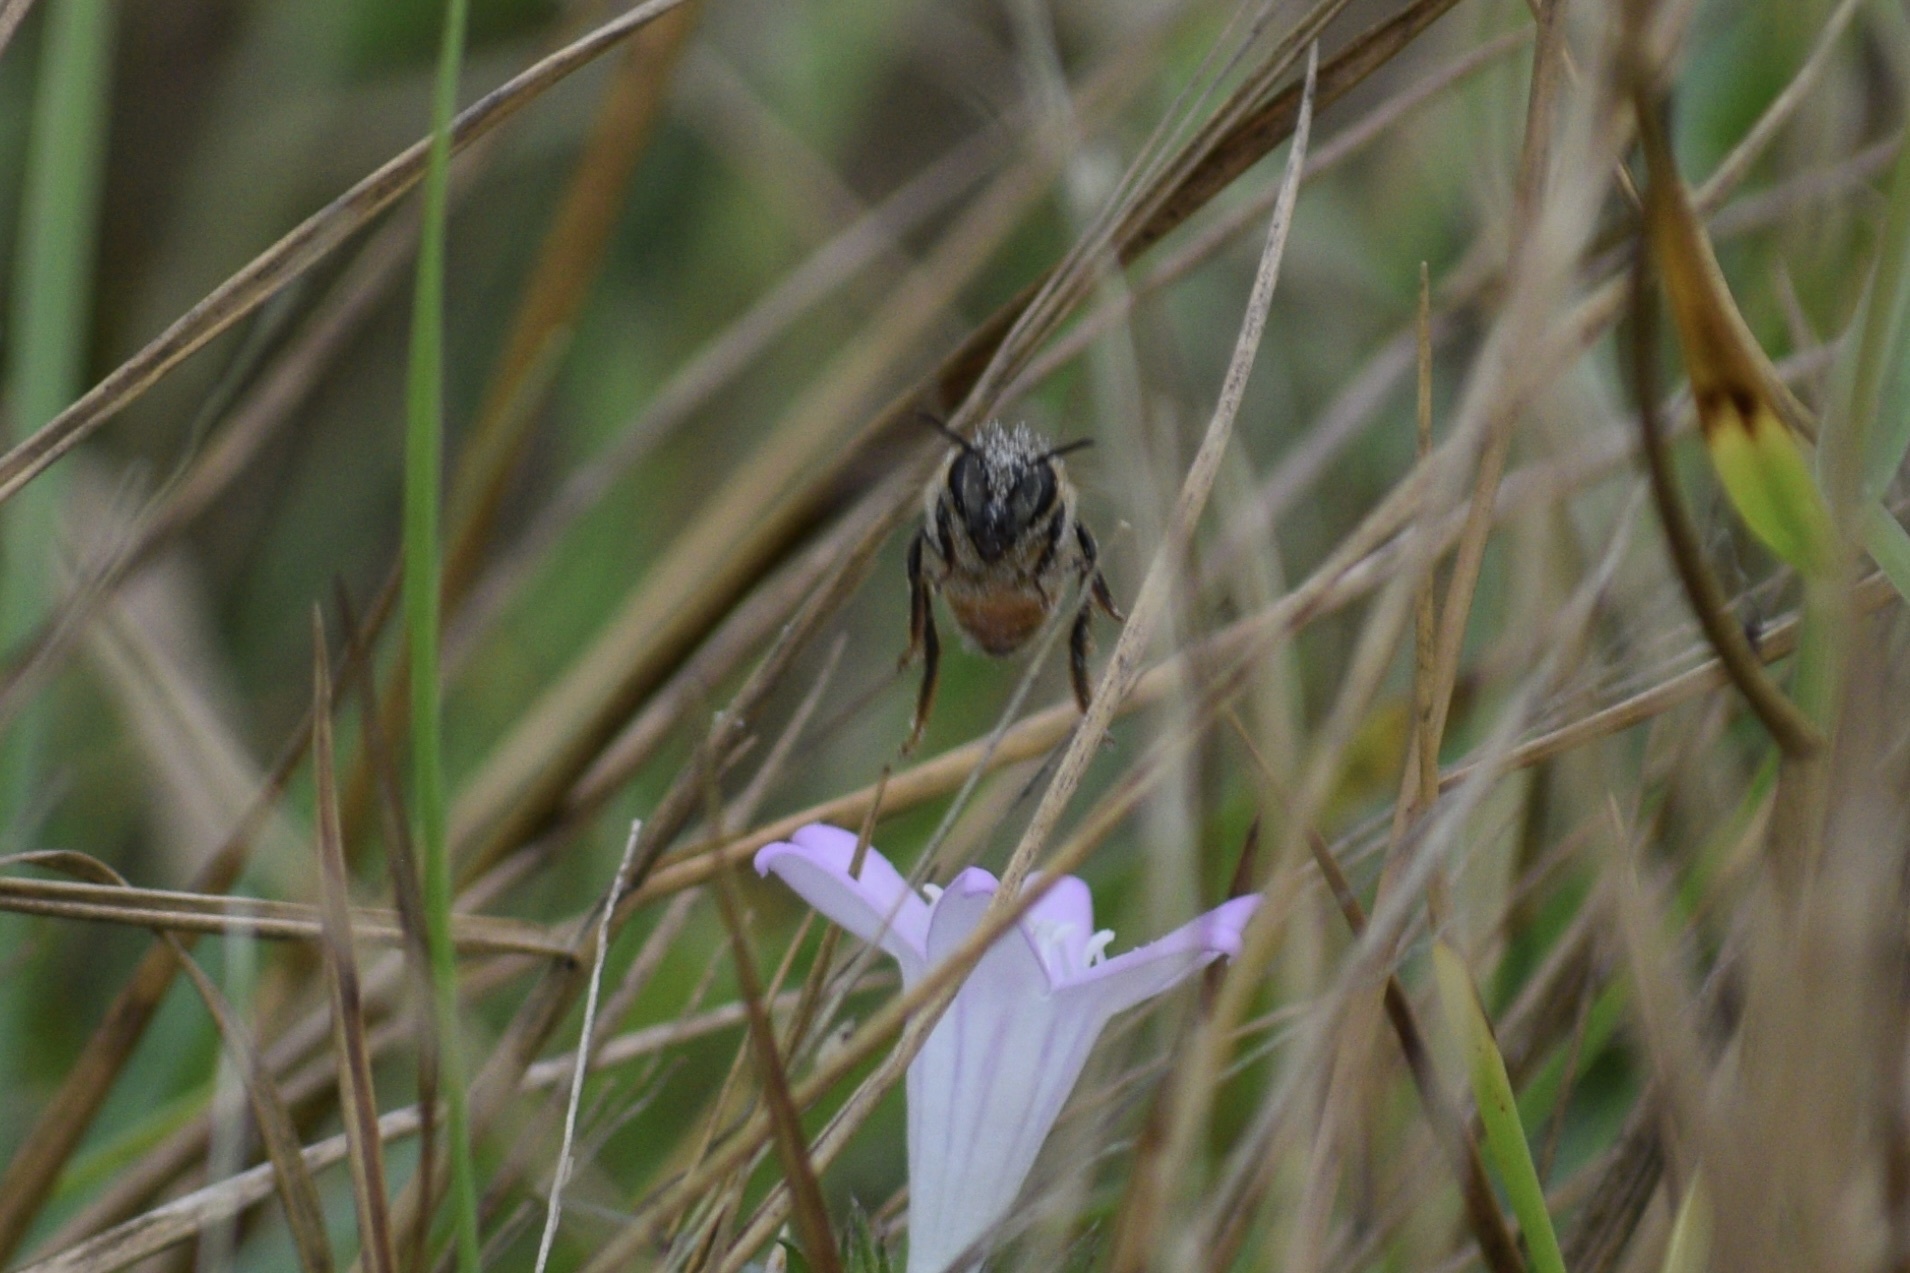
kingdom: Animalia
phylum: Arthropoda
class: Insecta
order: Hymenoptera
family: Apidae
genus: Apis
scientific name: Apis mellifera
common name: Honey bee
